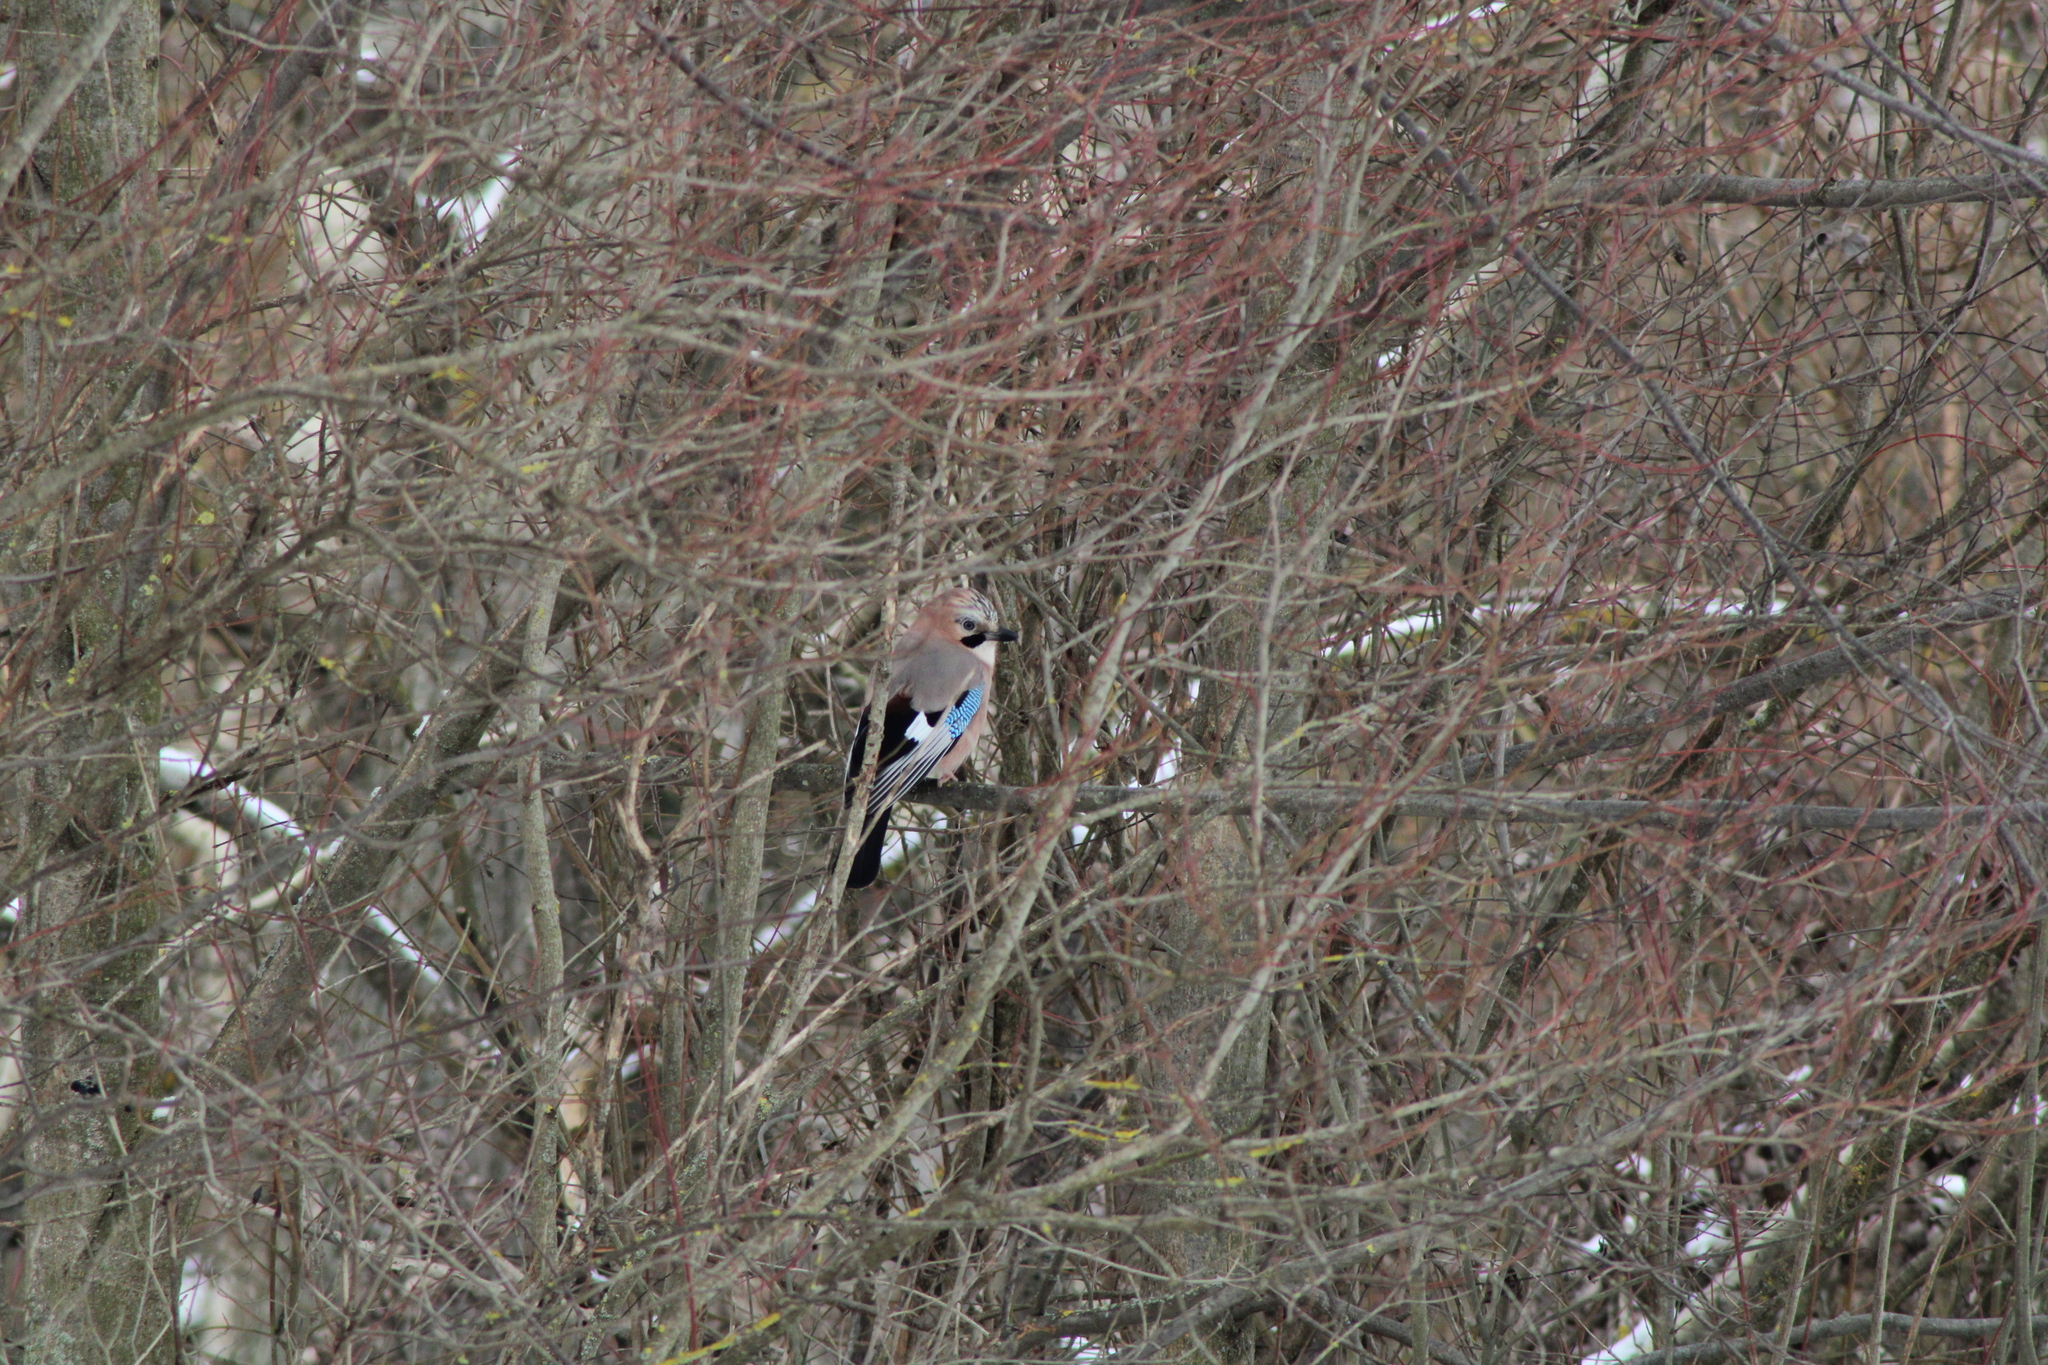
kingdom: Animalia
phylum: Chordata
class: Aves
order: Passeriformes
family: Corvidae
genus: Garrulus
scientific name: Garrulus glandarius
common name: Eurasian jay
